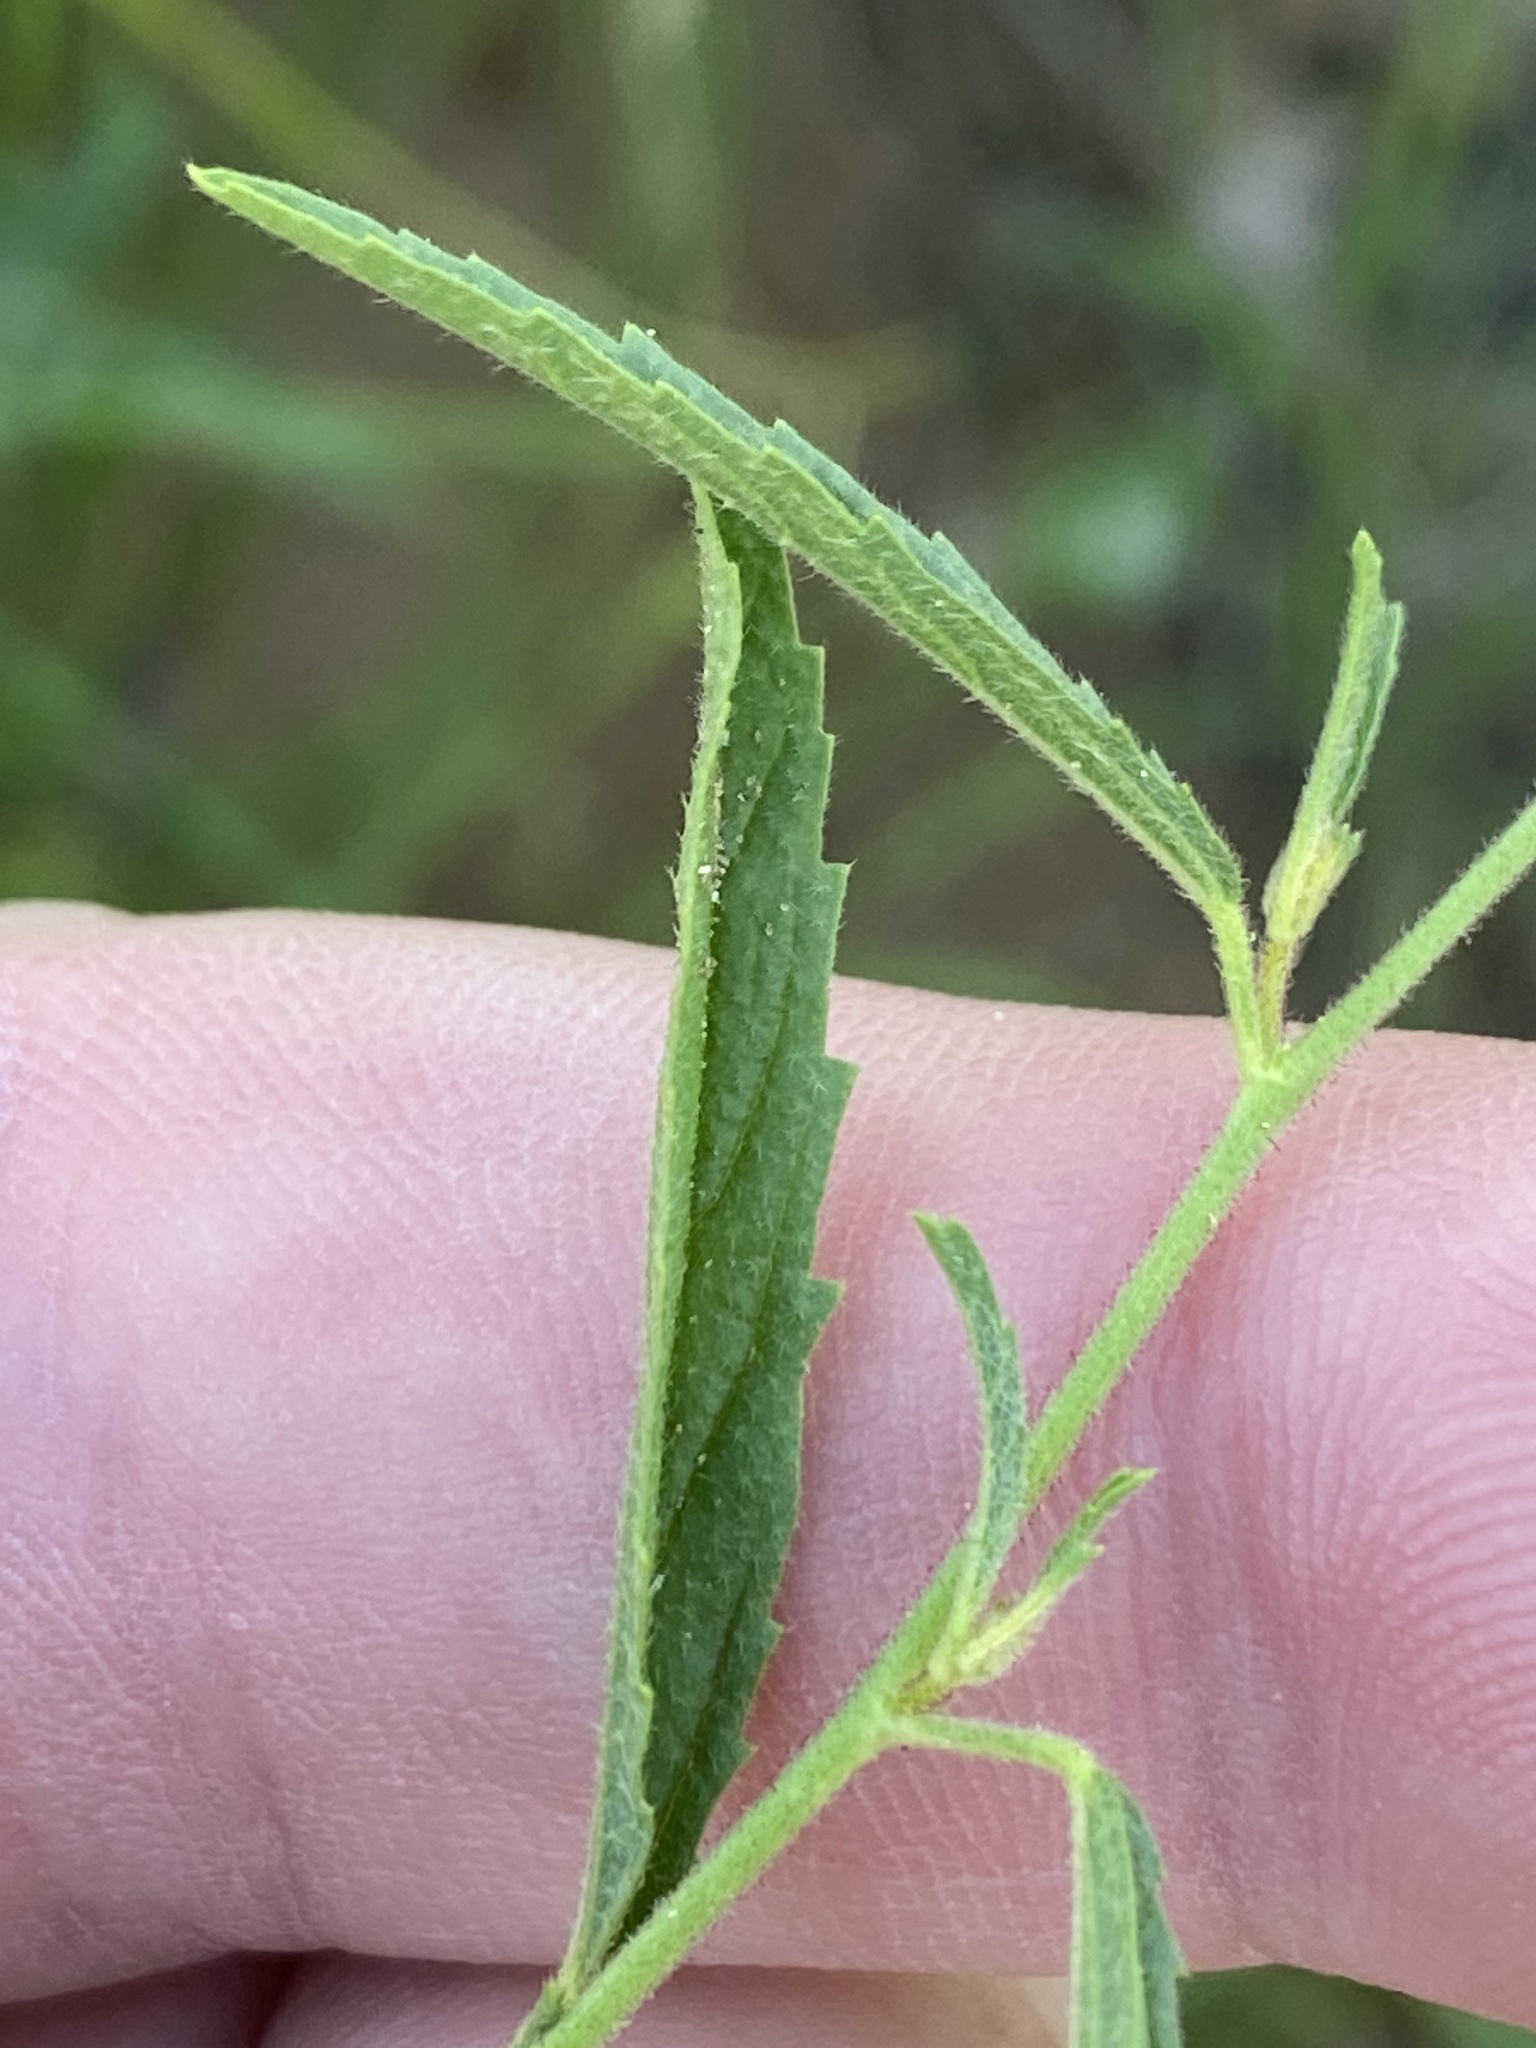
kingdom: Plantae
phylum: Tracheophyta
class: Magnoliopsida
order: Malvales
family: Malvaceae
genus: Hermannia
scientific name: Hermannia modesta
